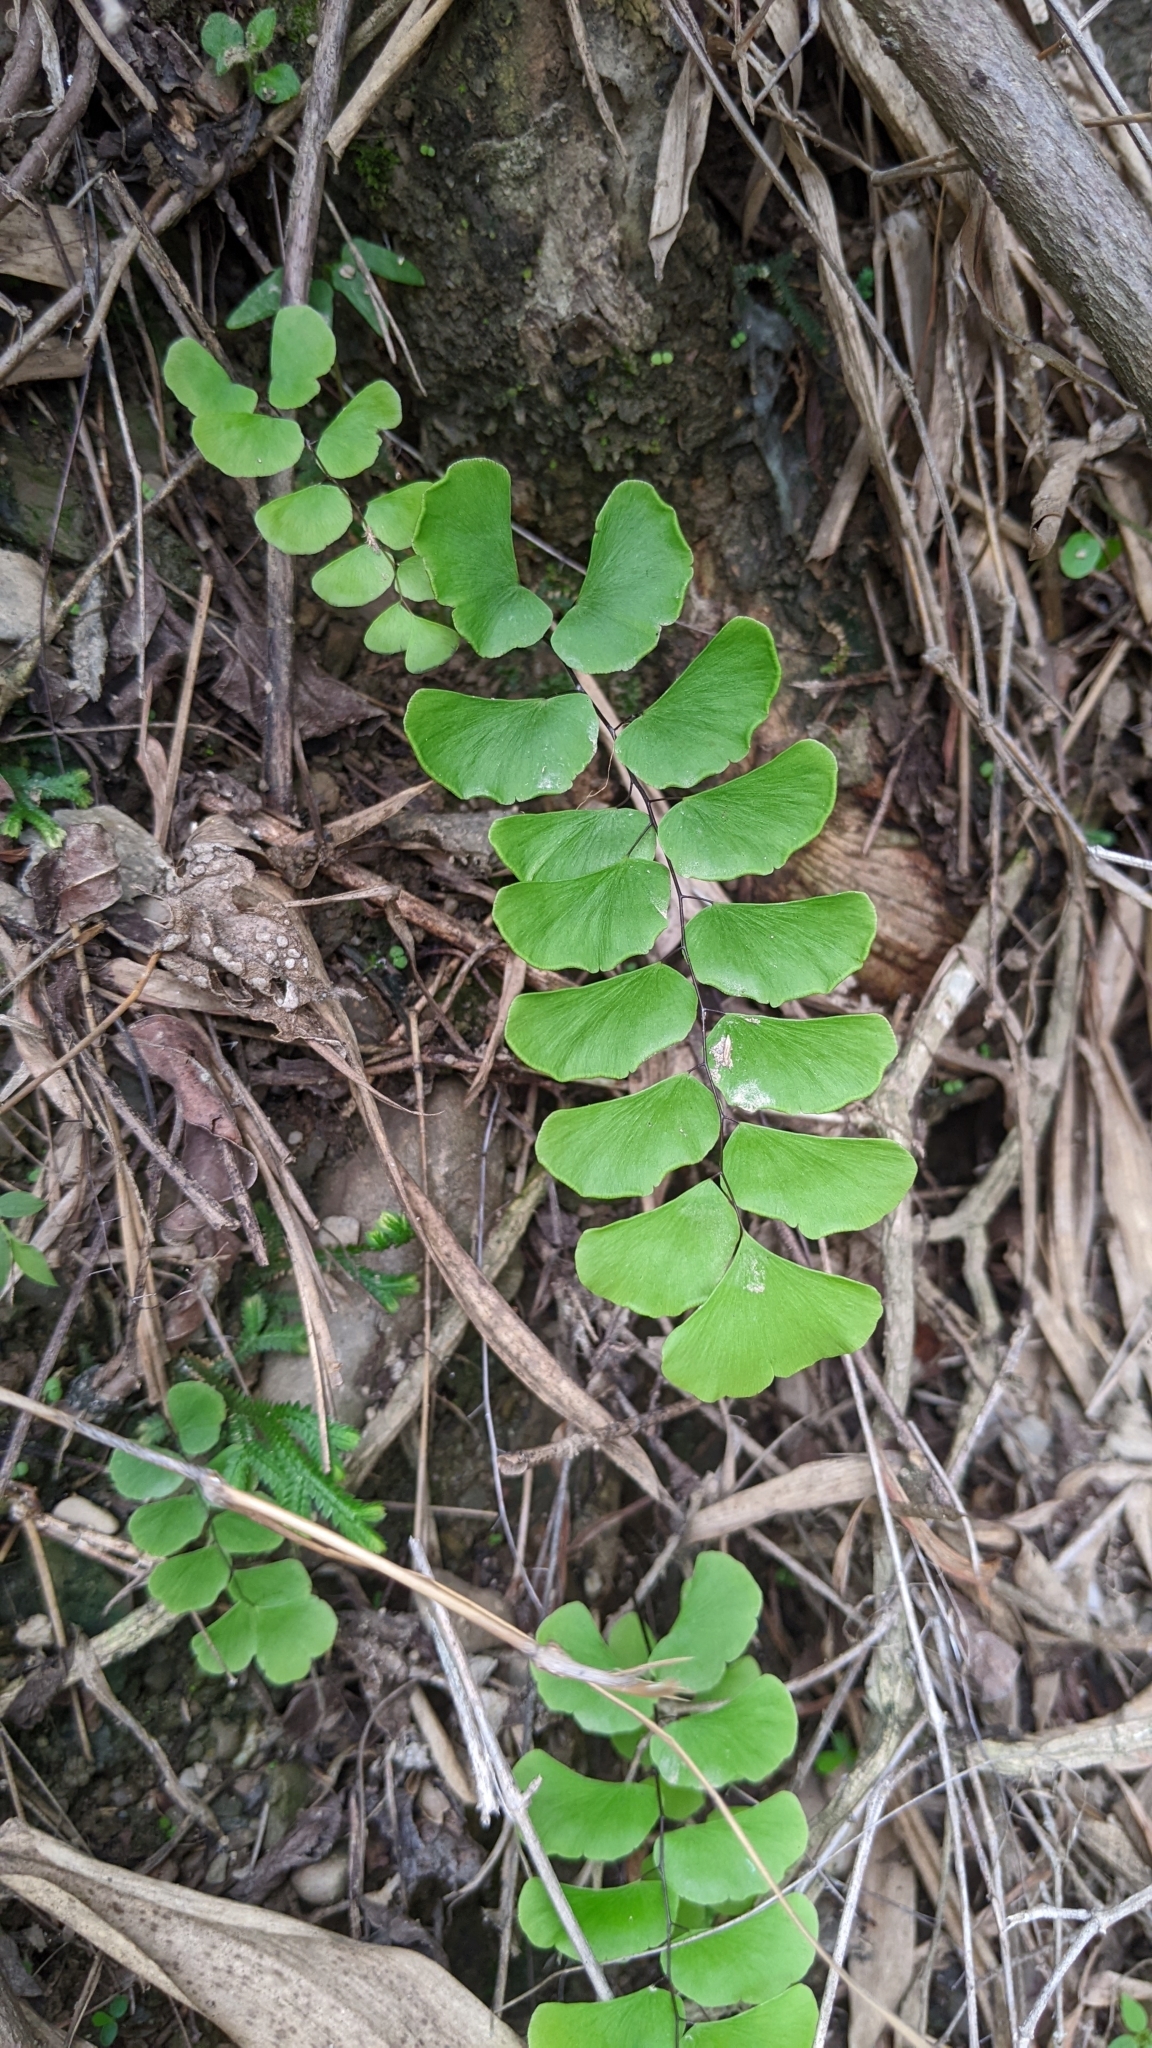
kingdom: Plantae
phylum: Tracheophyta
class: Polypodiopsida
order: Polypodiales
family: Pteridaceae
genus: Adiantum
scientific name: Adiantum philippense
